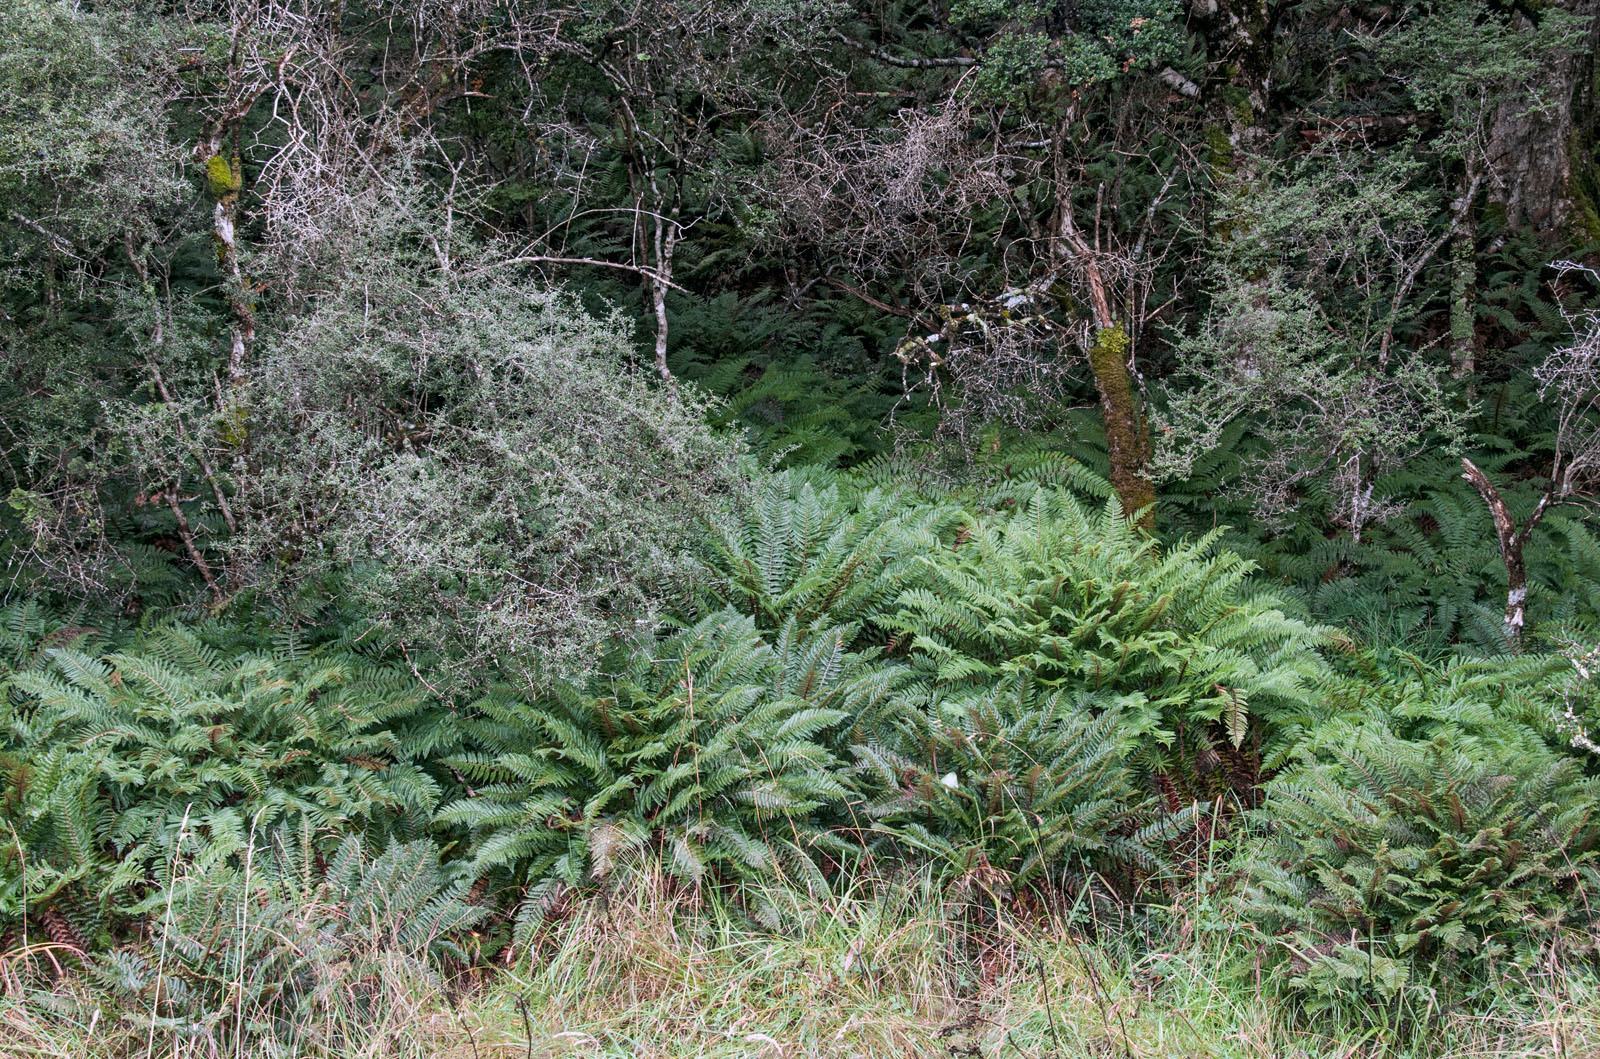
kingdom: Plantae
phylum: Tracheophyta
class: Polypodiopsida
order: Polypodiales
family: Dryopteridaceae
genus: Polystichum
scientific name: Polystichum vestitum
